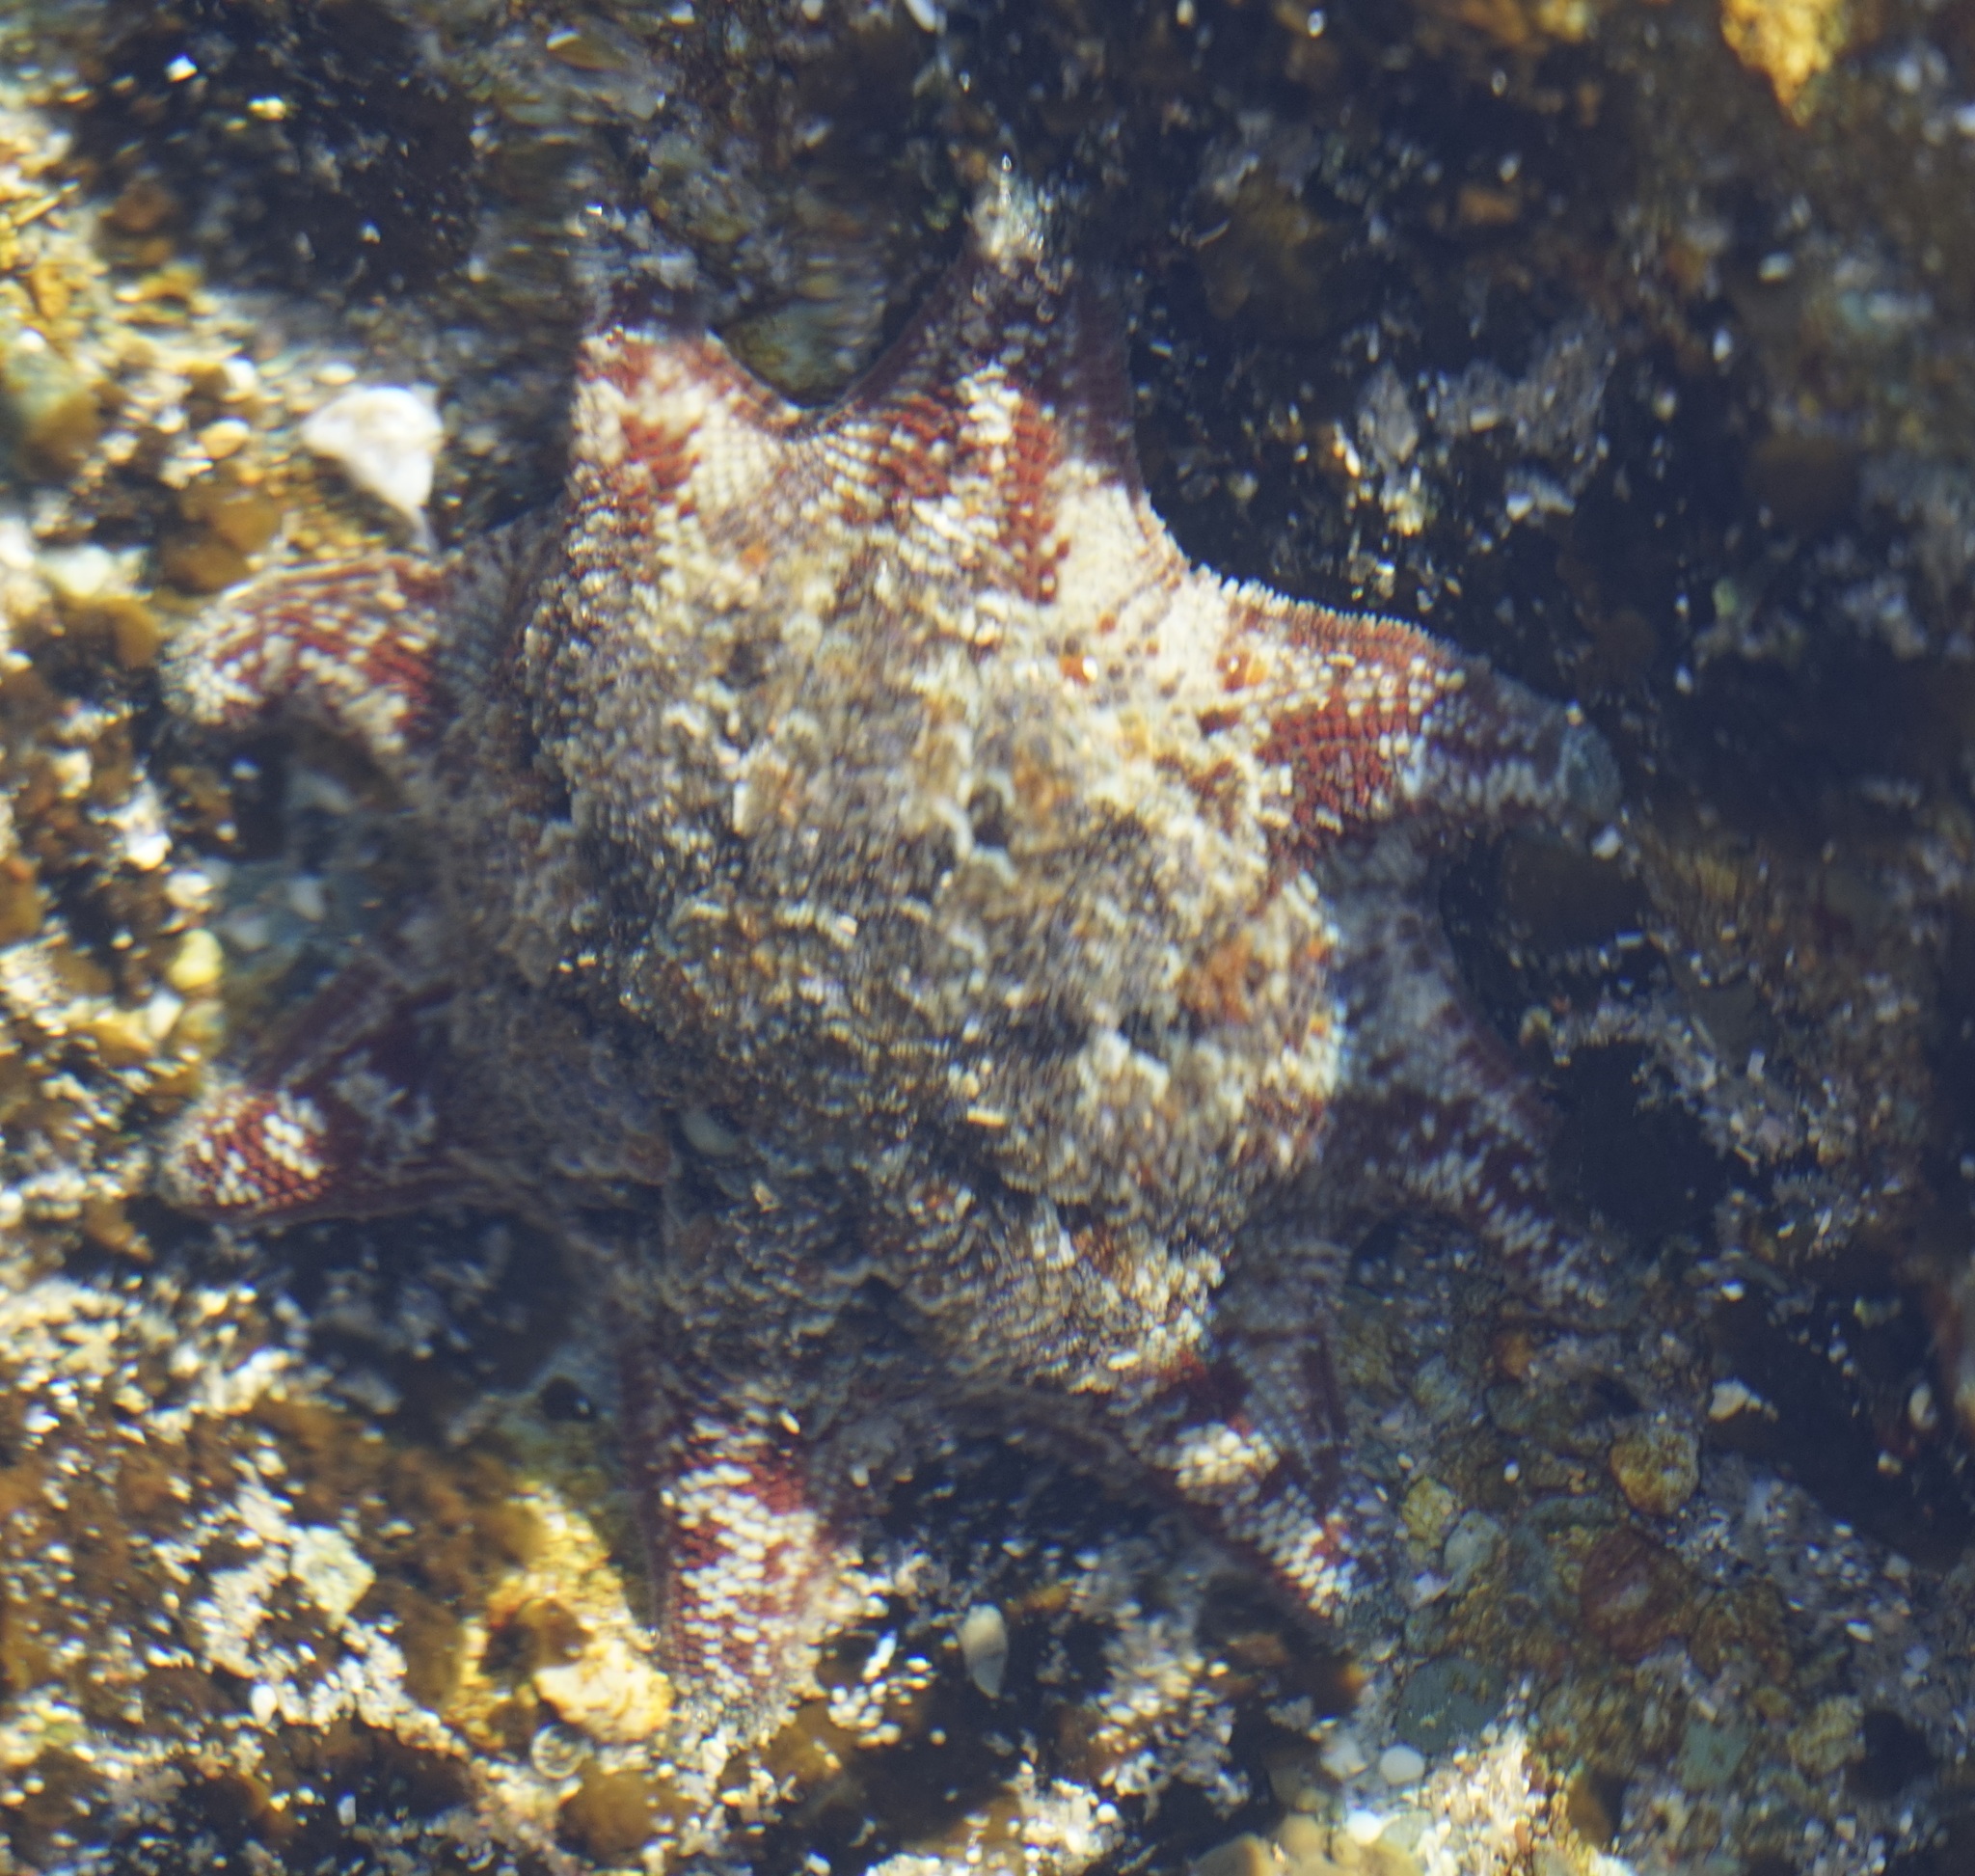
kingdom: Animalia
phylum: Echinodermata
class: Asteroidea
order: Valvatida
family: Asterinidae
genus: Meridiastra
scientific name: Meridiastra calcar
